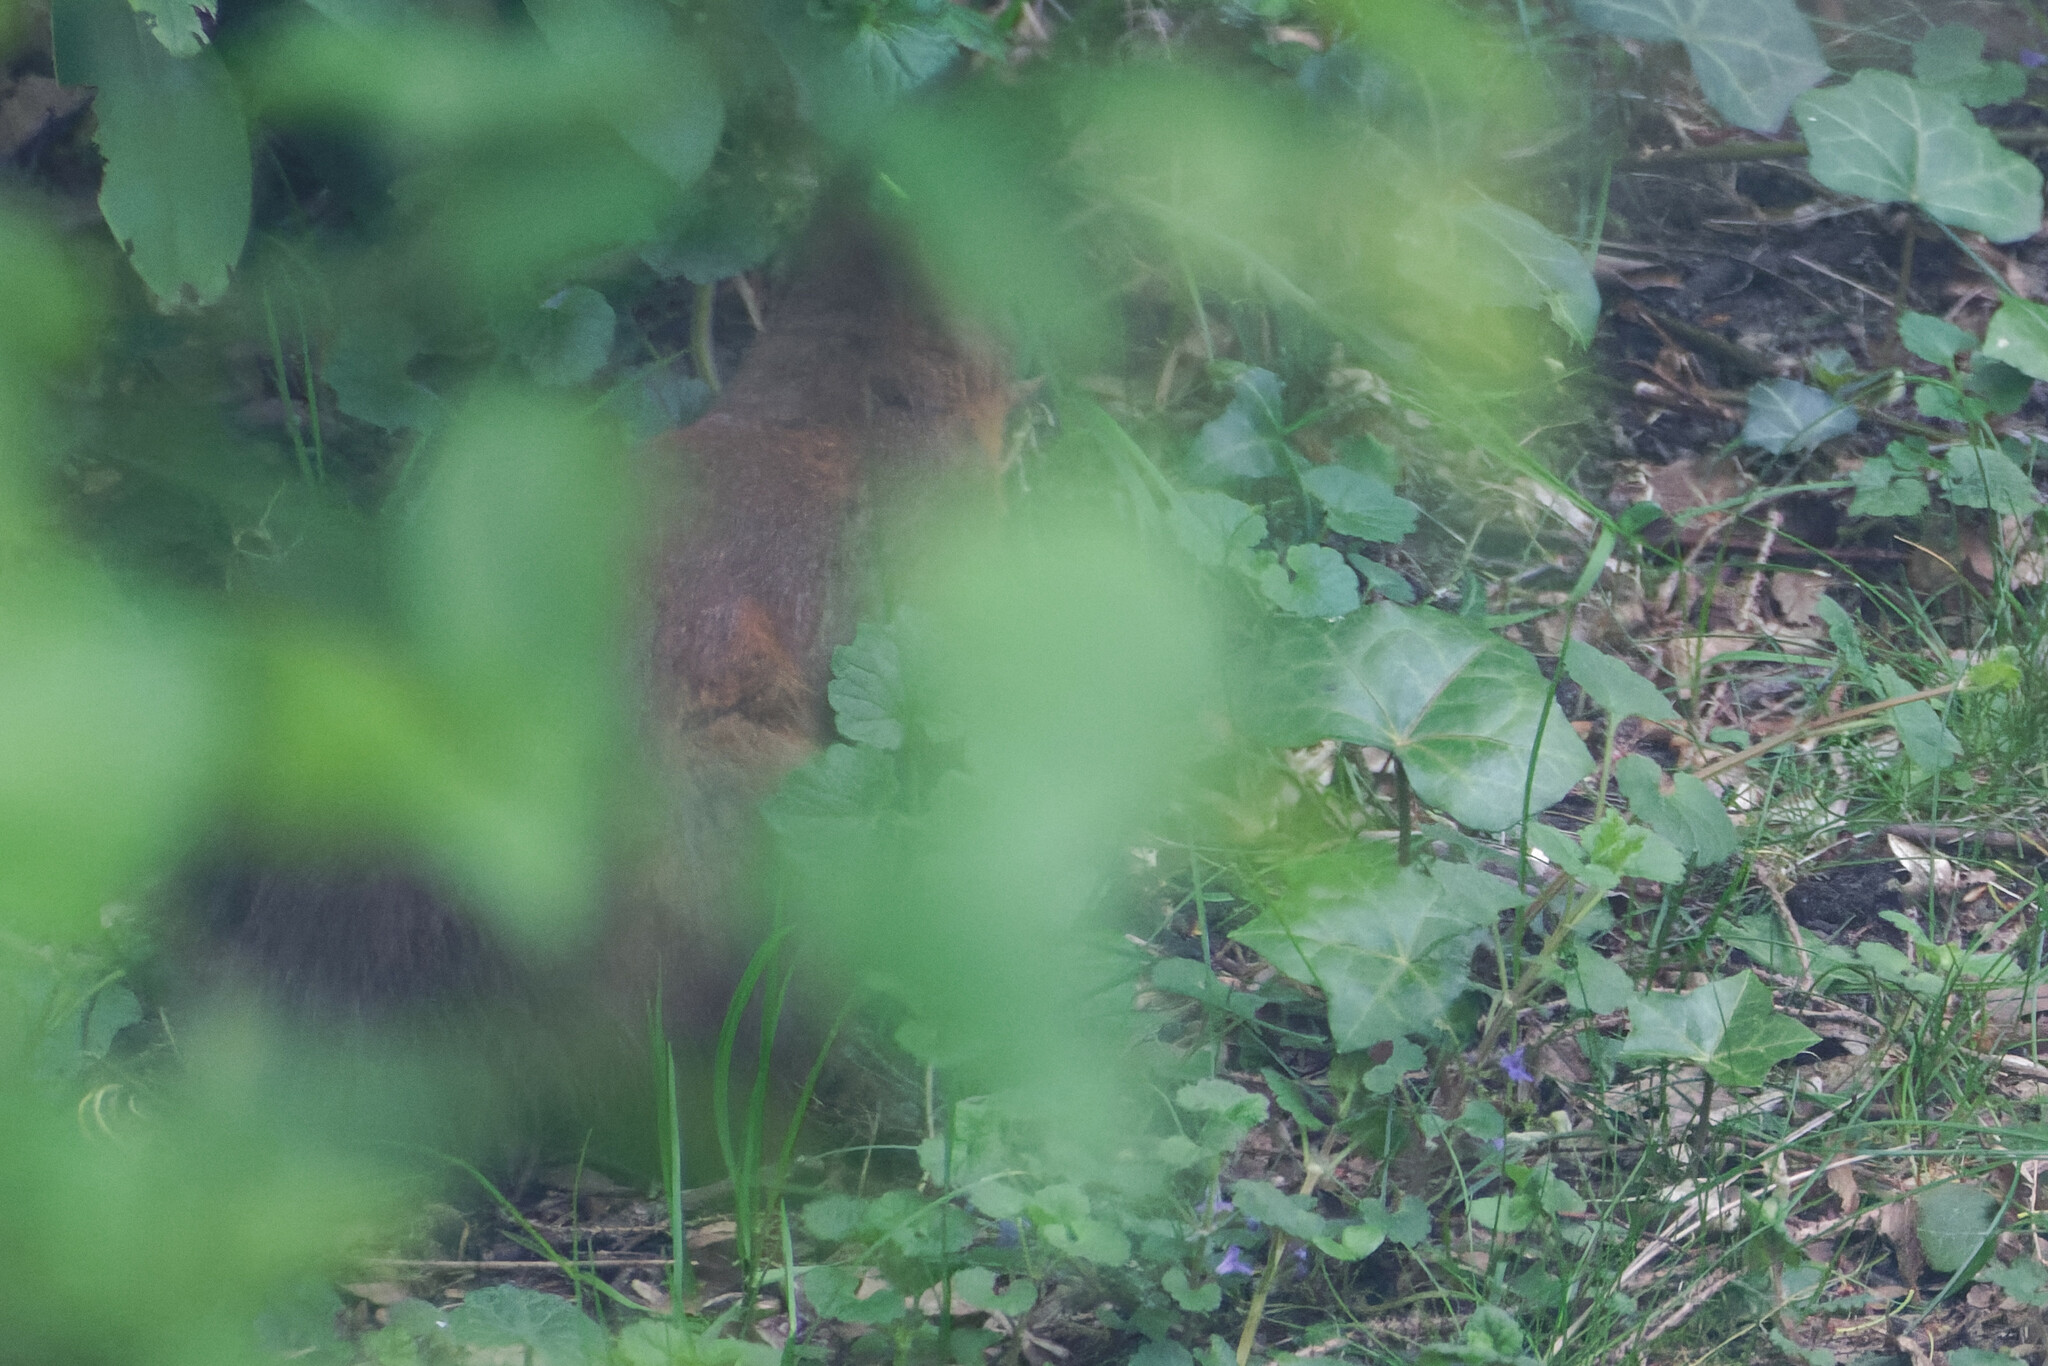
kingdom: Animalia
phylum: Chordata
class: Mammalia
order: Rodentia
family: Sciuridae
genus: Sciurus
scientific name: Sciurus vulgaris
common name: Eurasian red squirrel
